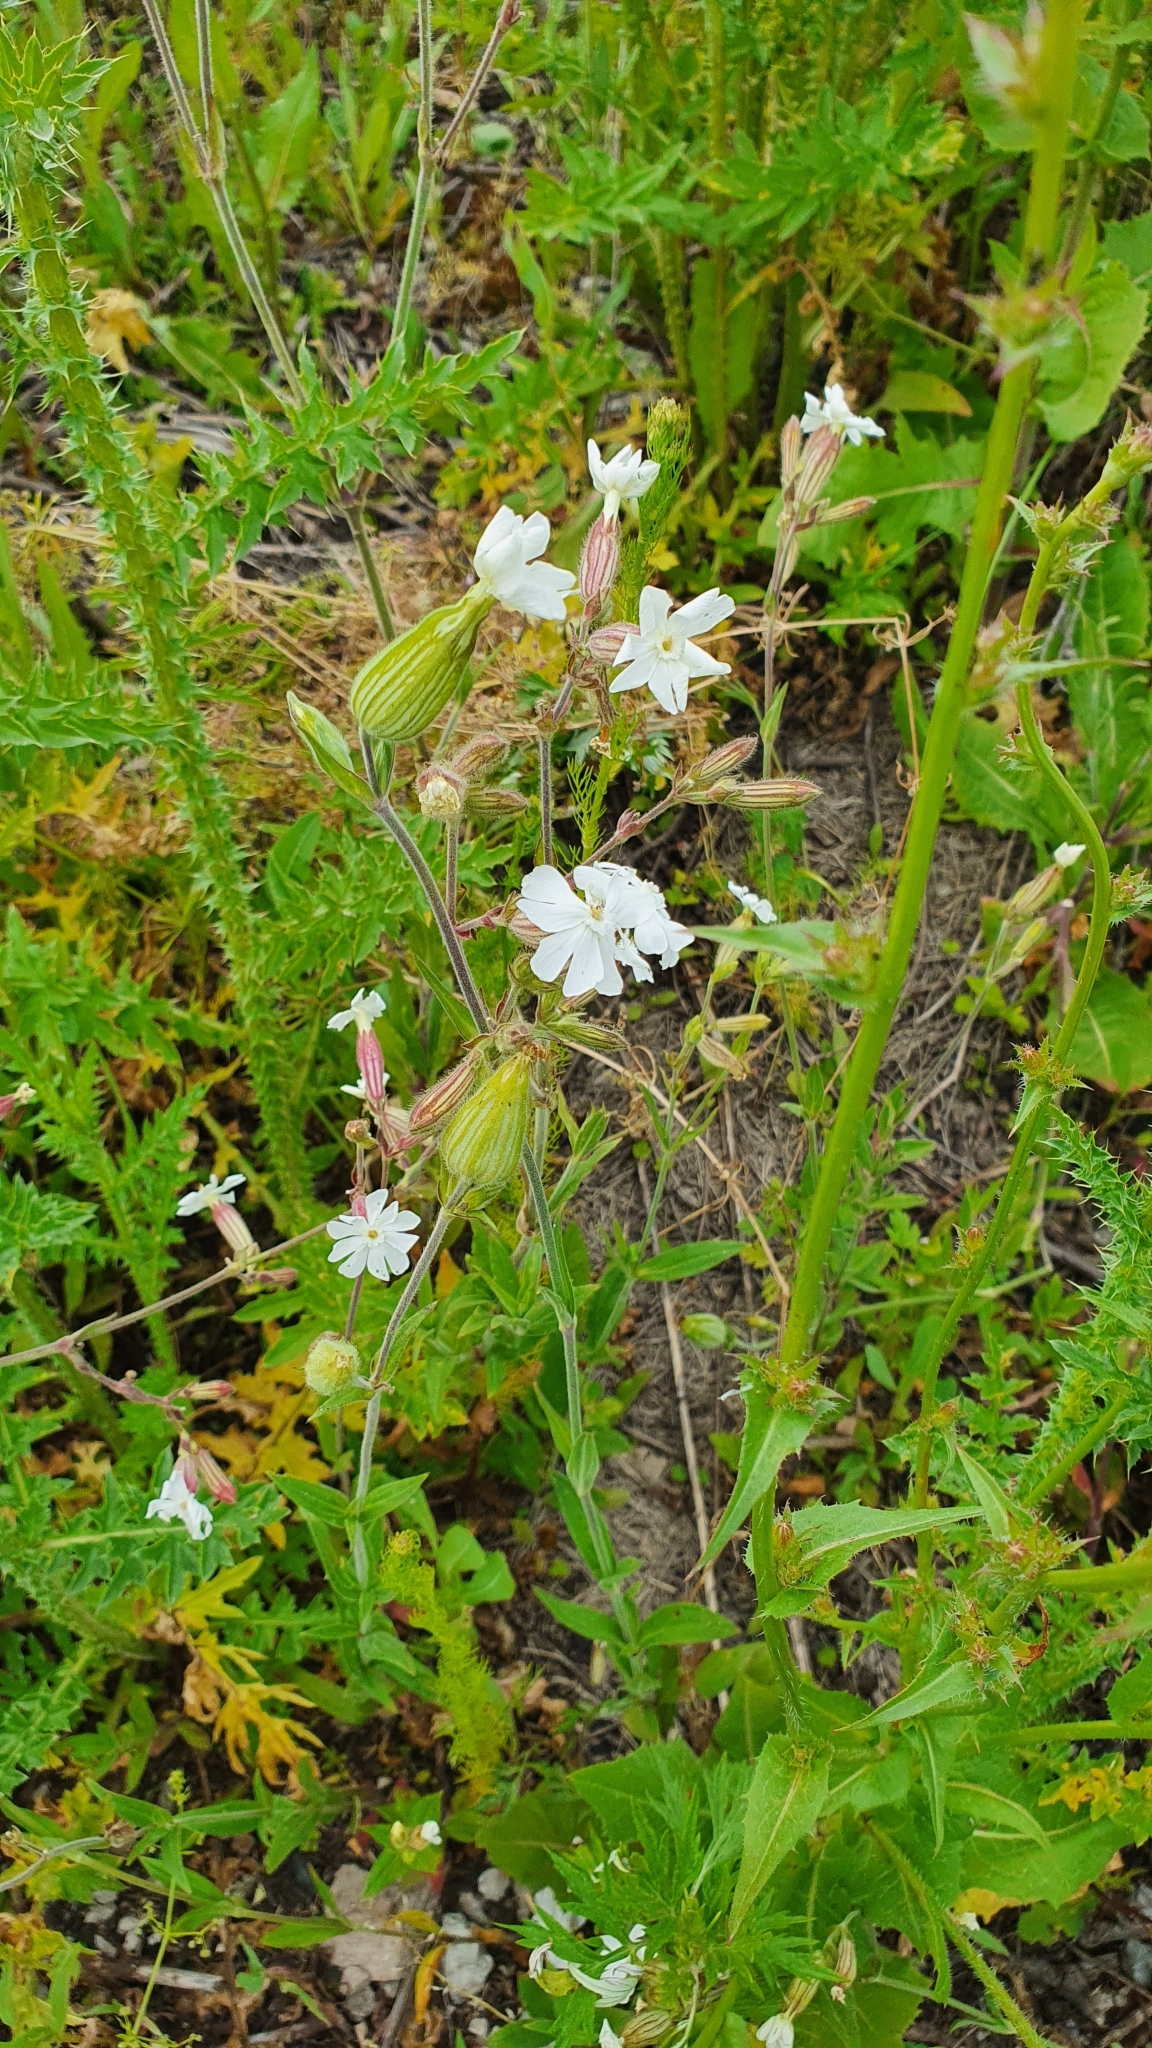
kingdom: Plantae
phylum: Tracheophyta
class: Magnoliopsida
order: Caryophyllales
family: Caryophyllaceae
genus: Silene
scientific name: Silene latifolia
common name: White campion
